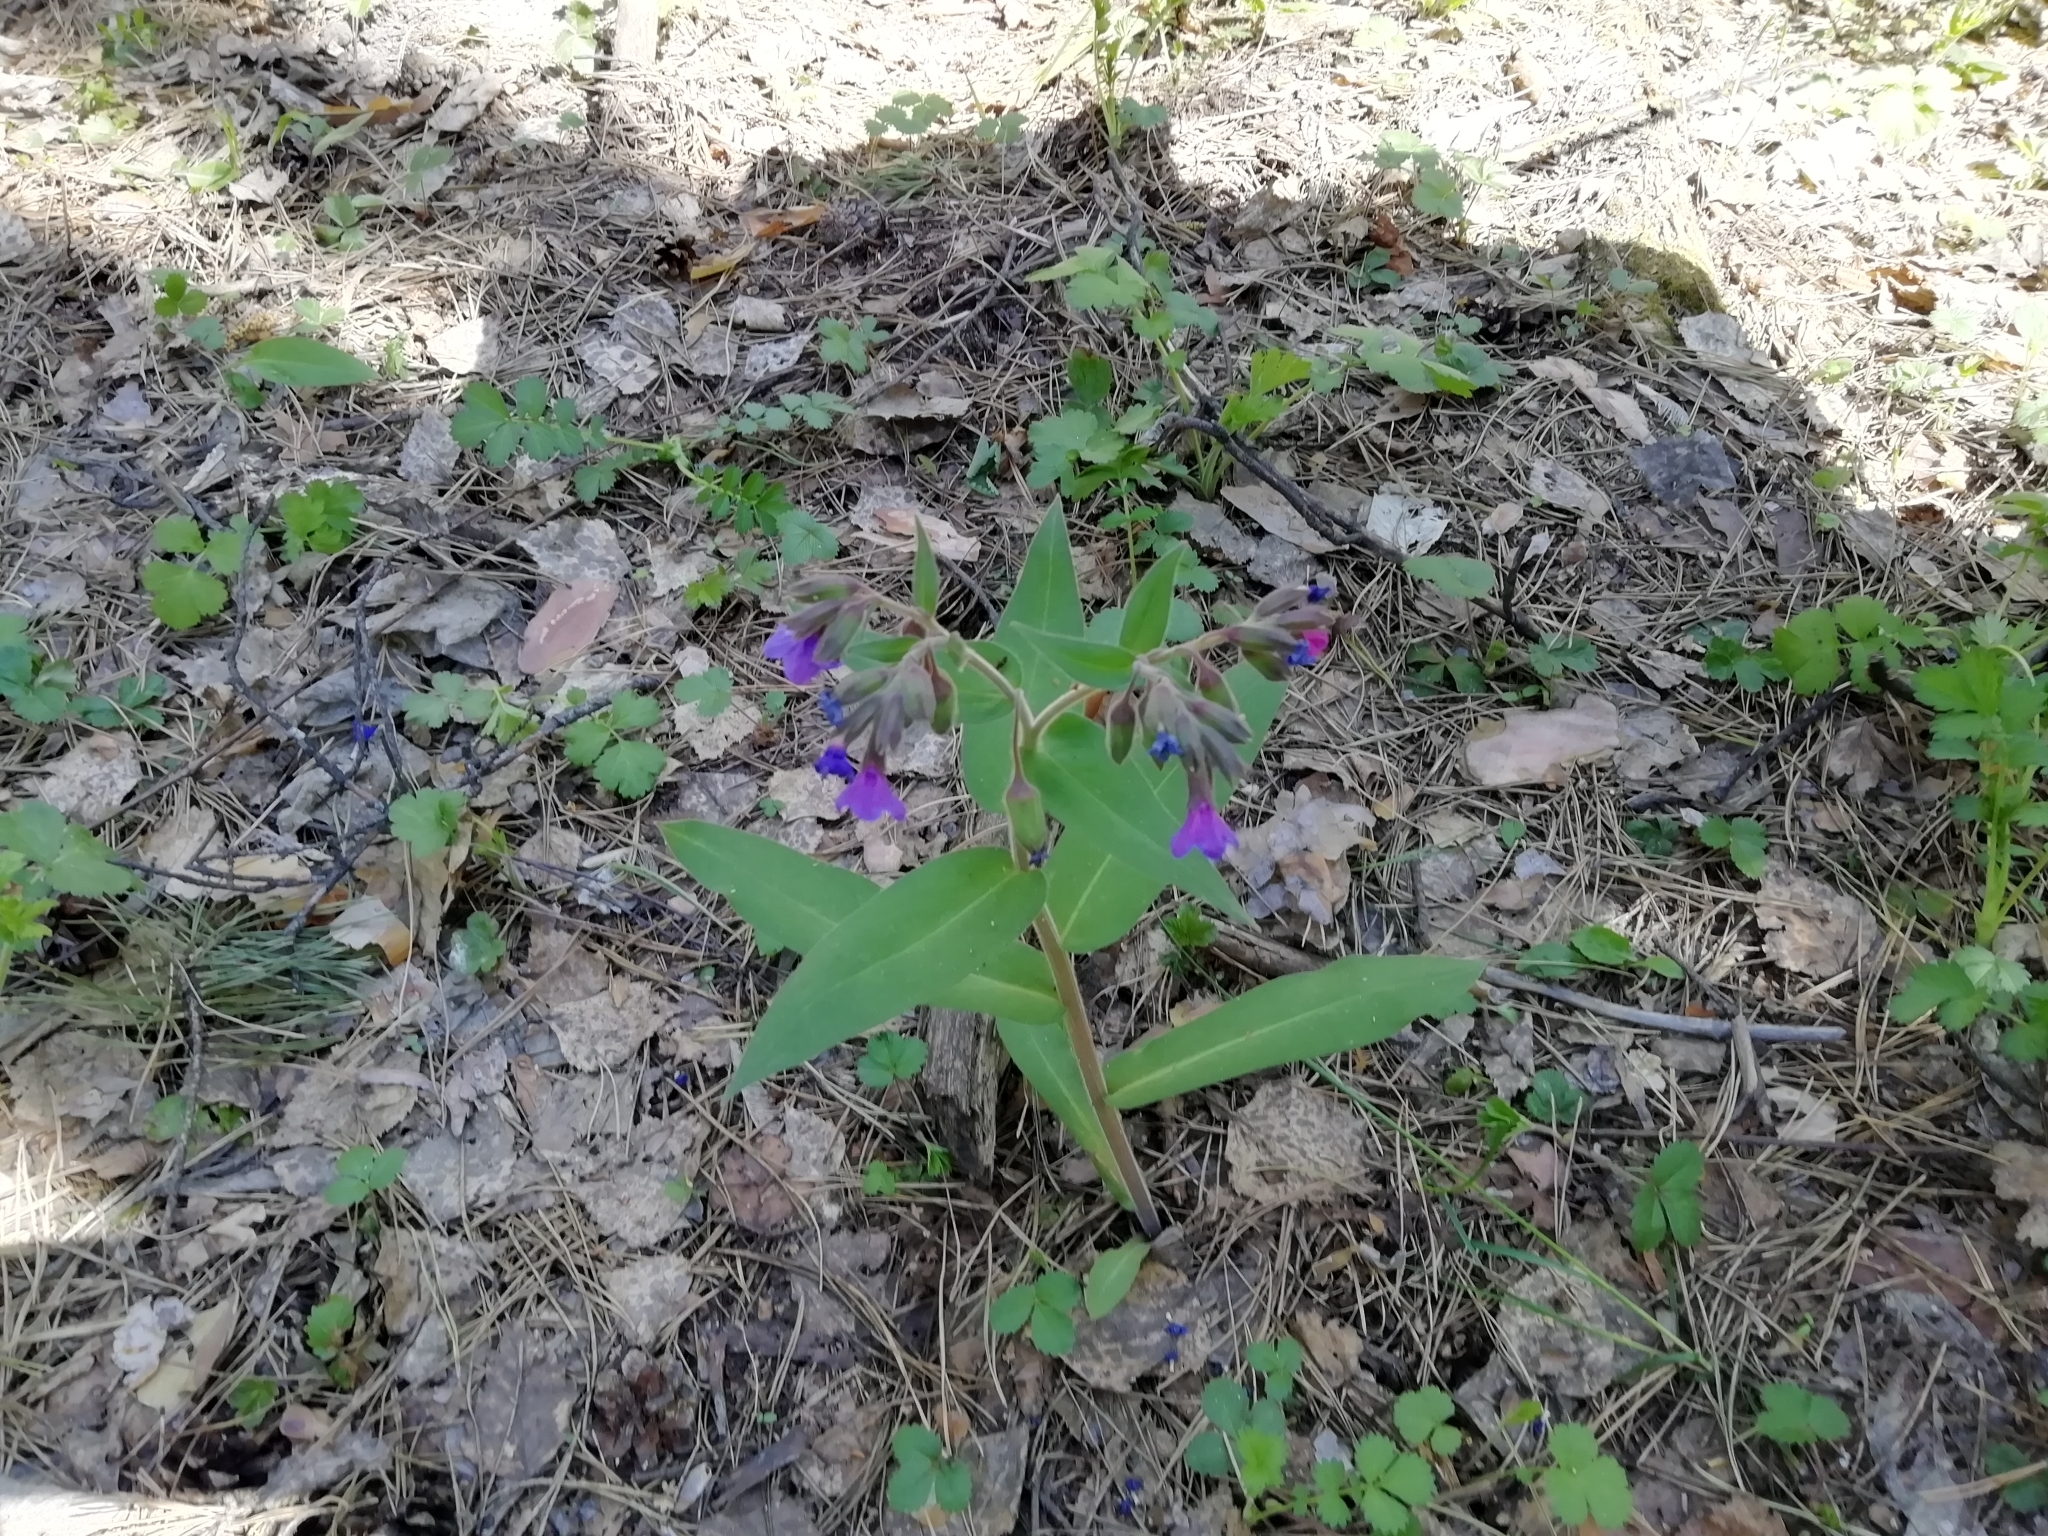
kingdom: Plantae
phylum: Tracheophyta
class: Magnoliopsida
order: Boraginales
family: Boraginaceae
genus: Pulmonaria
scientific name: Pulmonaria mollis
